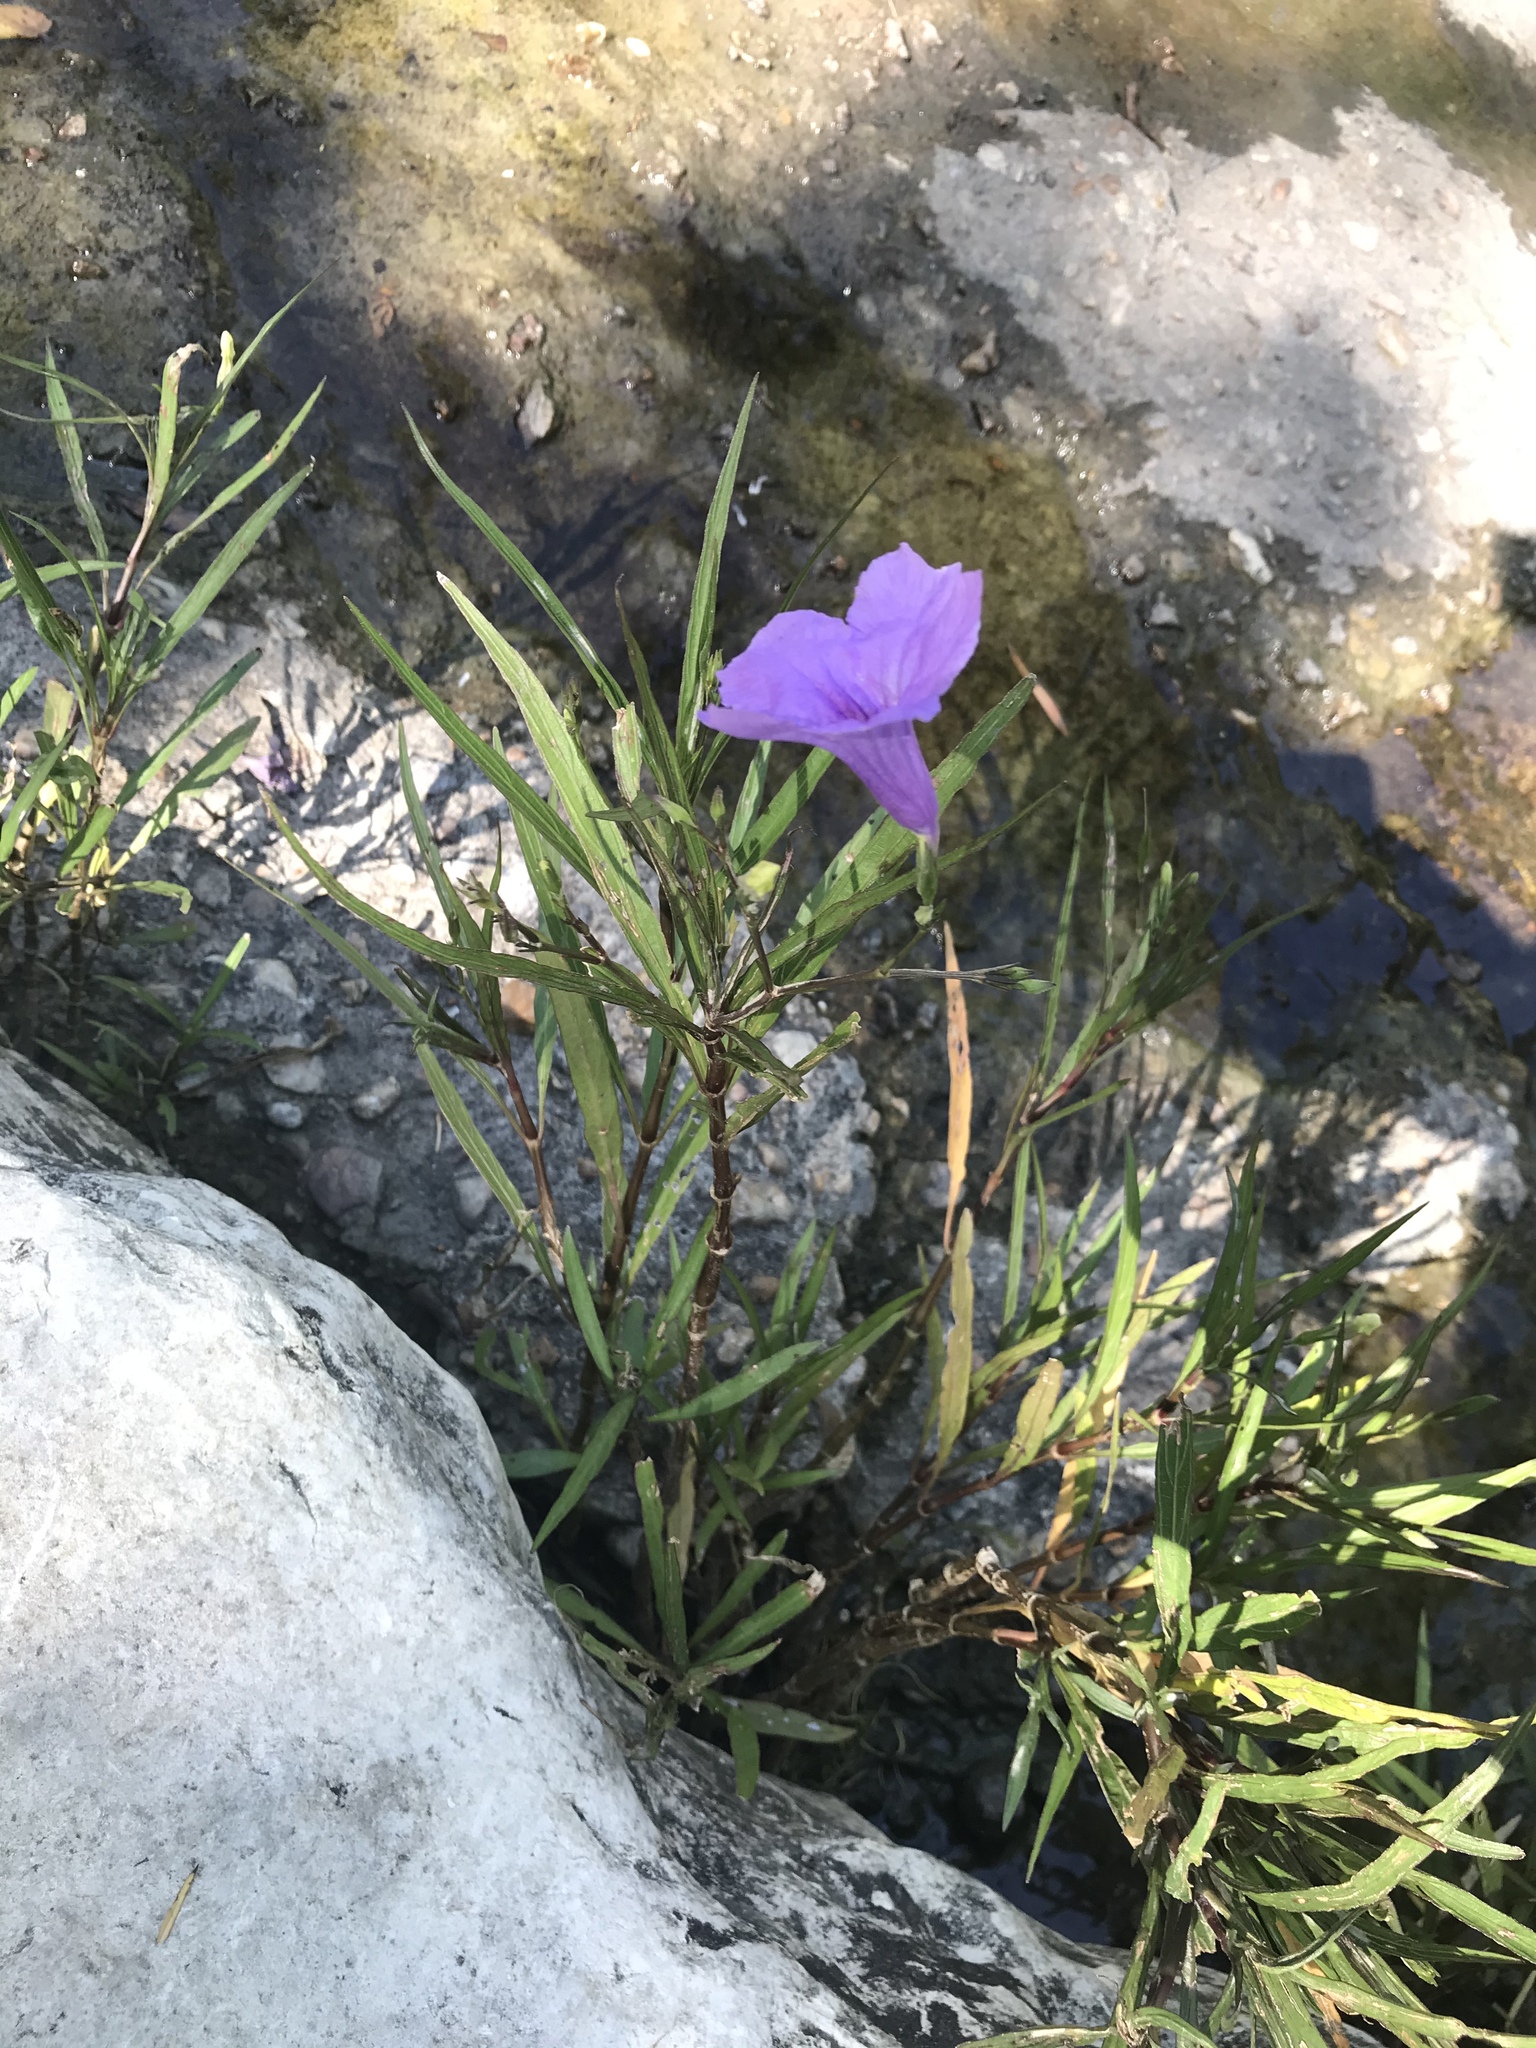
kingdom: Plantae
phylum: Tracheophyta
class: Magnoliopsida
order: Lamiales
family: Acanthaceae
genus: Ruellia
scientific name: Ruellia simplex
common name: Softseed wild petunia
